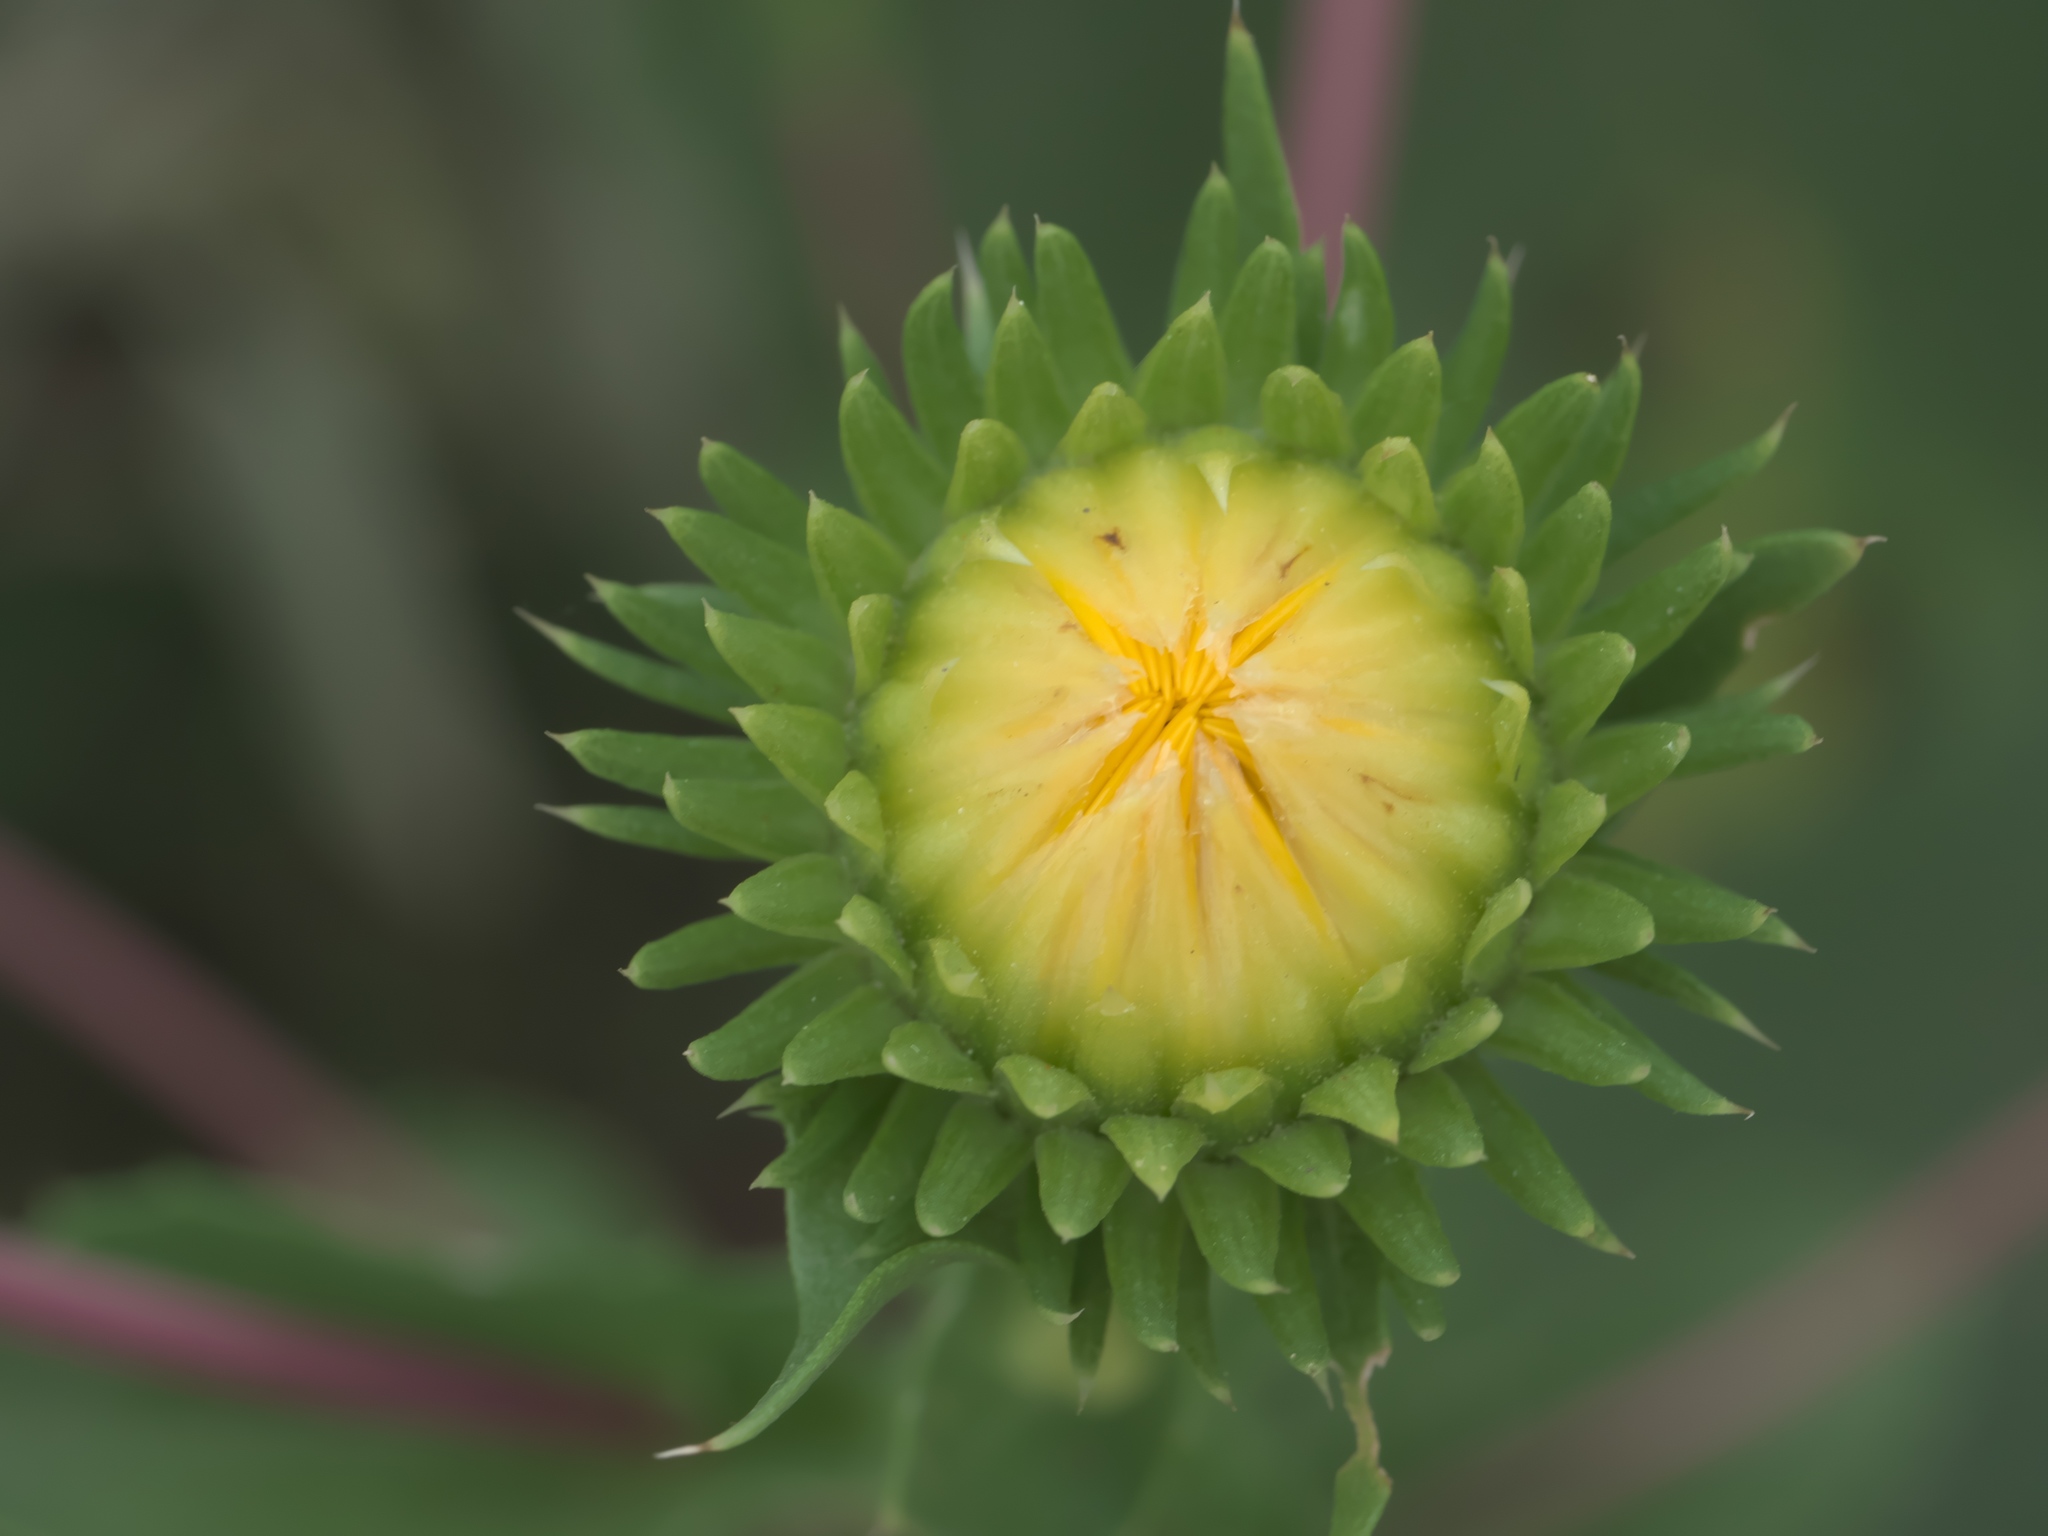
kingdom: Plantae
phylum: Tracheophyta
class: Magnoliopsida
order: Asterales
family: Asteraceae
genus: Grindelia
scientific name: Grindelia ciliata
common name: Goldenweed
